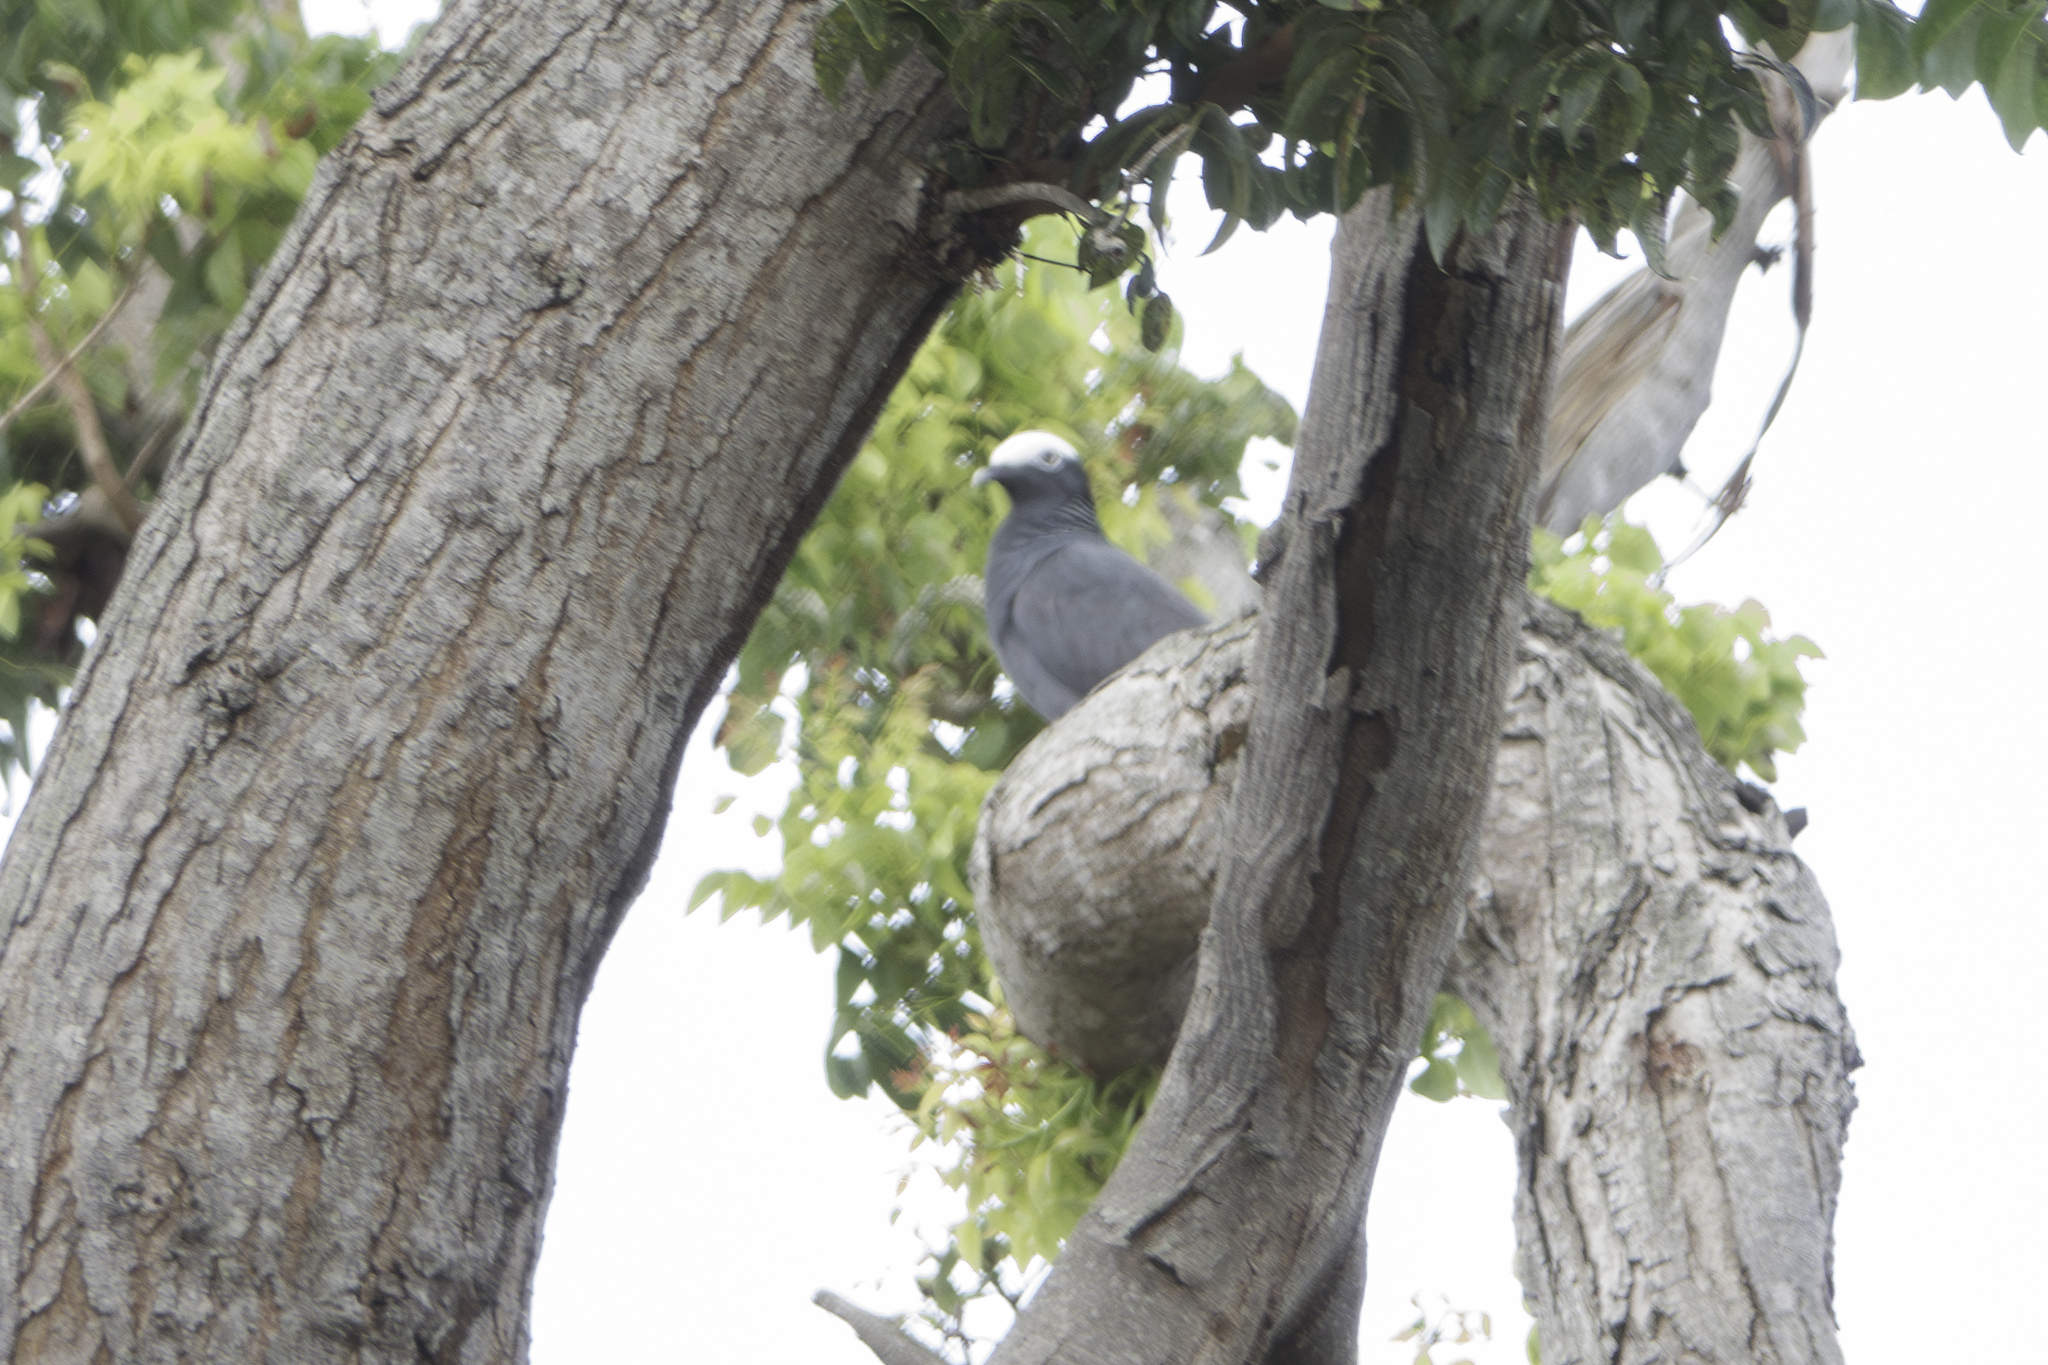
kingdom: Animalia
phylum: Chordata
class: Aves
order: Columbiformes
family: Columbidae
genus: Patagioenas
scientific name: Patagioenas leucocephala
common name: White-crowned pigeon
